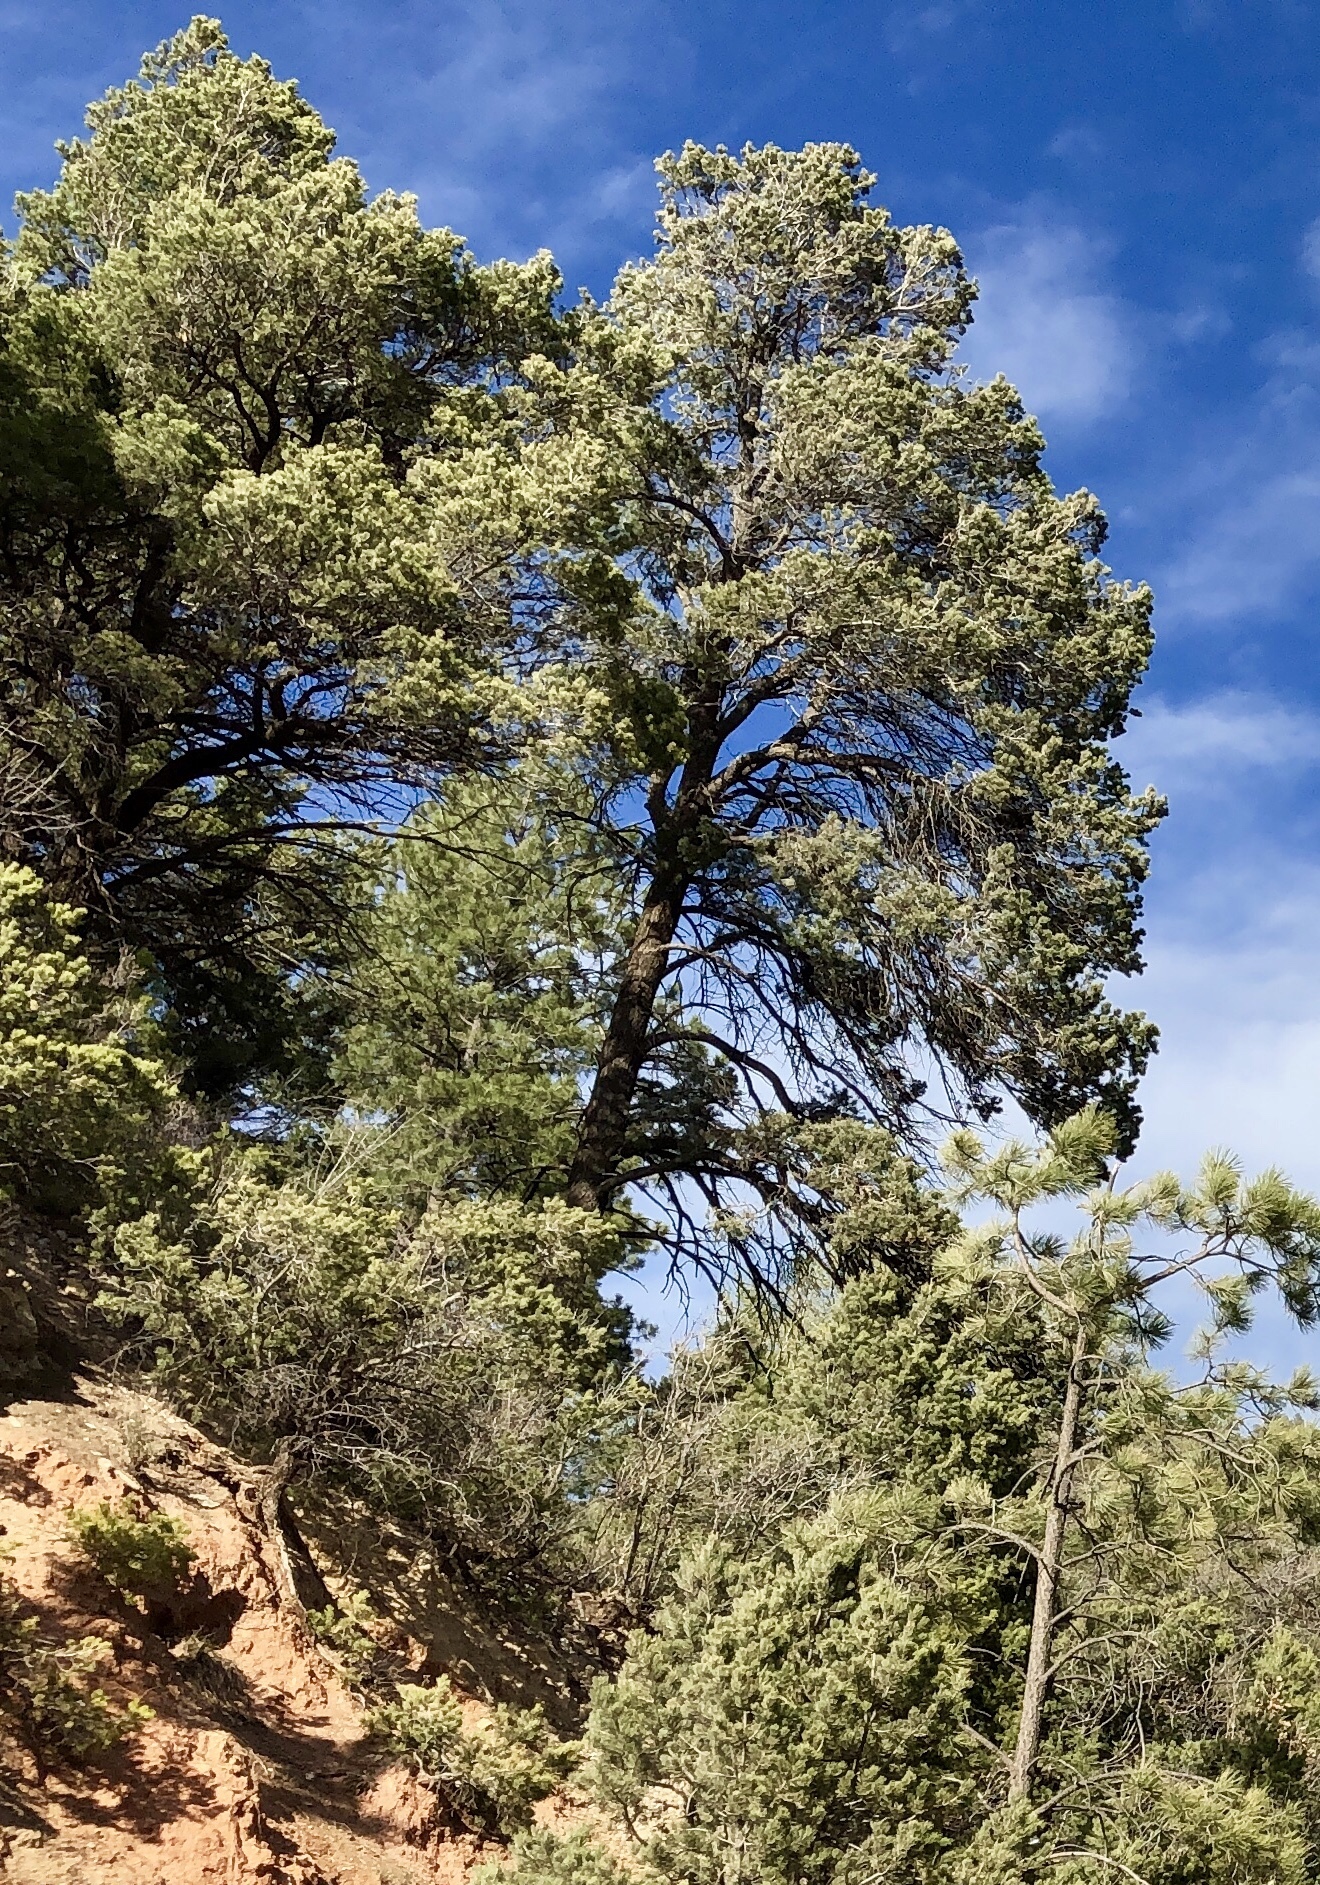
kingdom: Plantae
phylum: Tracheophyta
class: Pinopsida
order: Pinales
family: Pinaceae
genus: Pinus
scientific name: Pinus ponderosa
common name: Western yellow-pine
